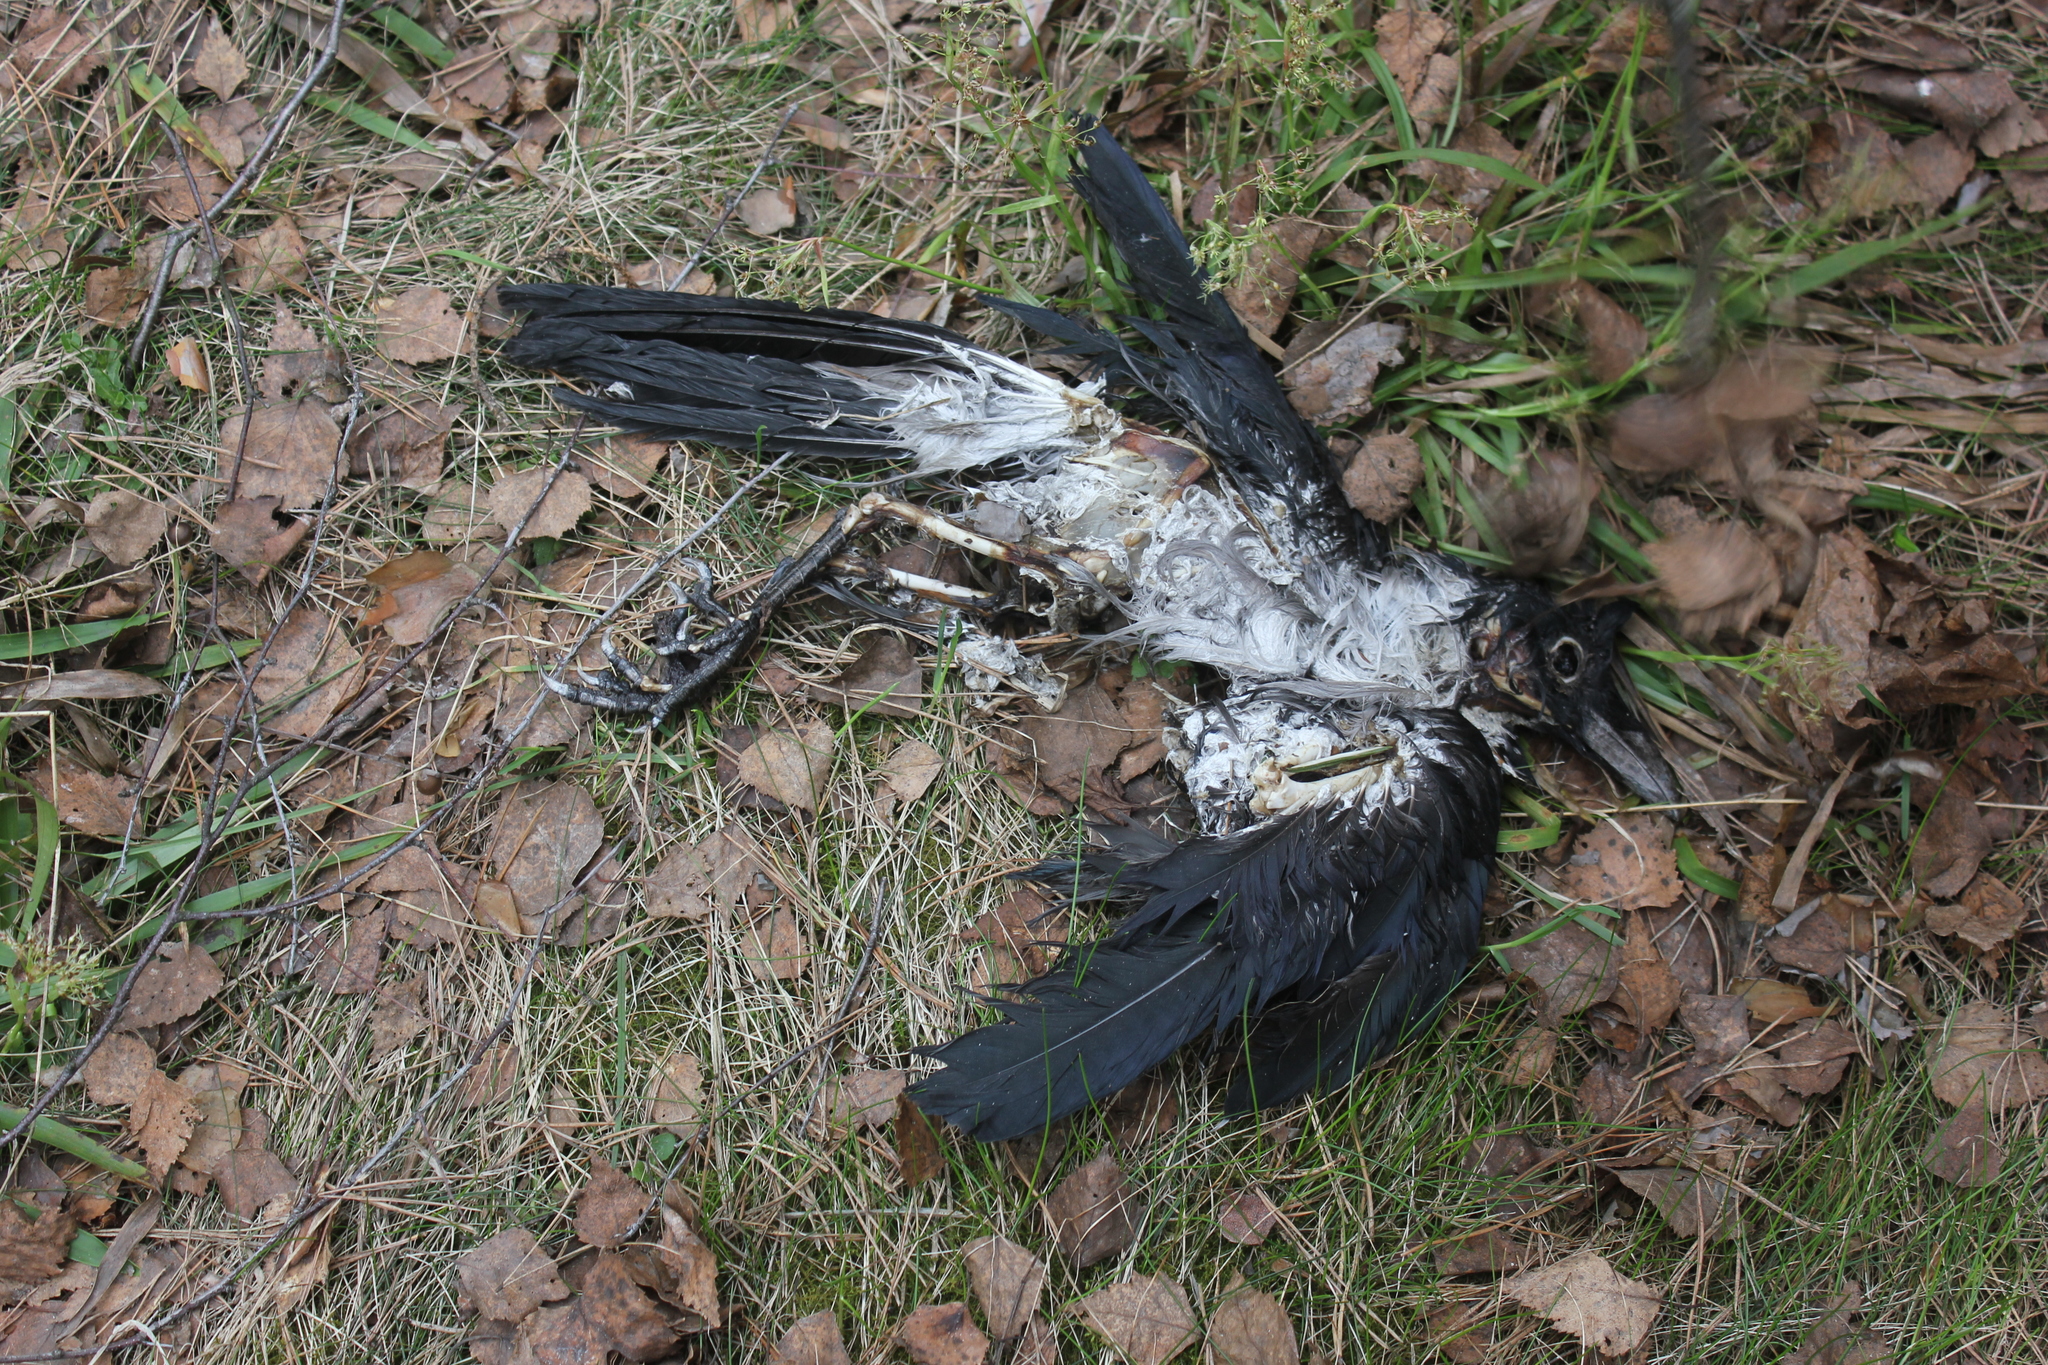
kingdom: Animalia
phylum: Chordata
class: Aves
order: Passeriformes
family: Corvidae
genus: Corvus
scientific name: Corvus cornix
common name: Hooded crow
